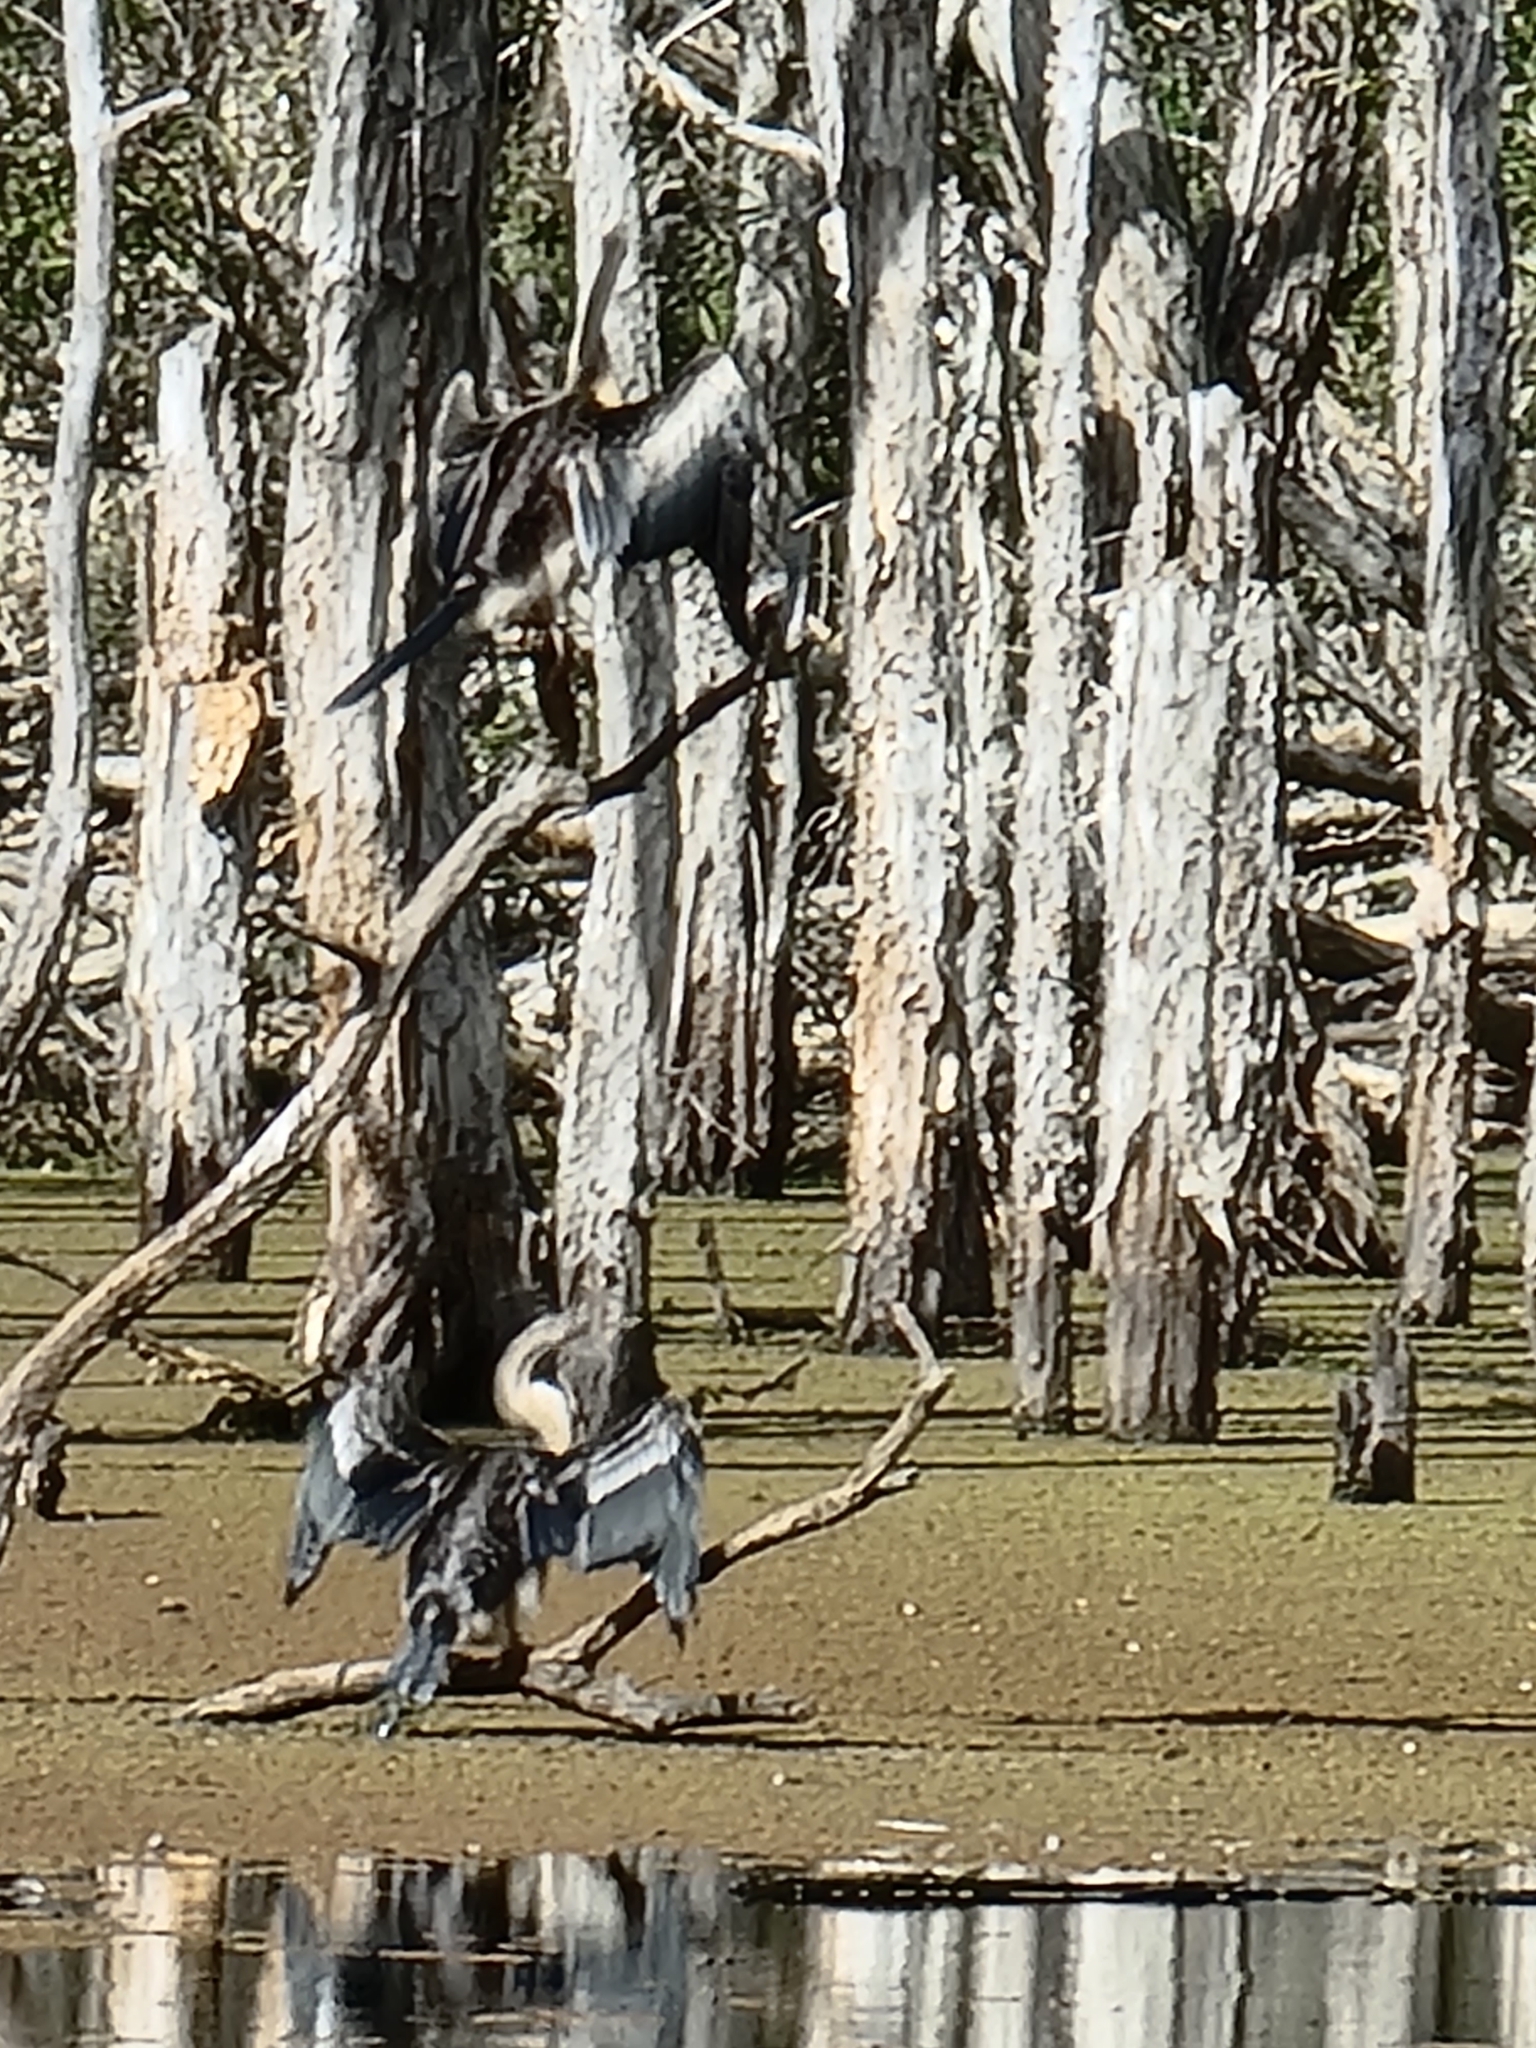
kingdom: Animalia
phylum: Chordata
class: Aves
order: Suliformes
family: Anhingidae
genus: Anhinga
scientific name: Anhinga novaehollandiae
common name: Australasian darter
